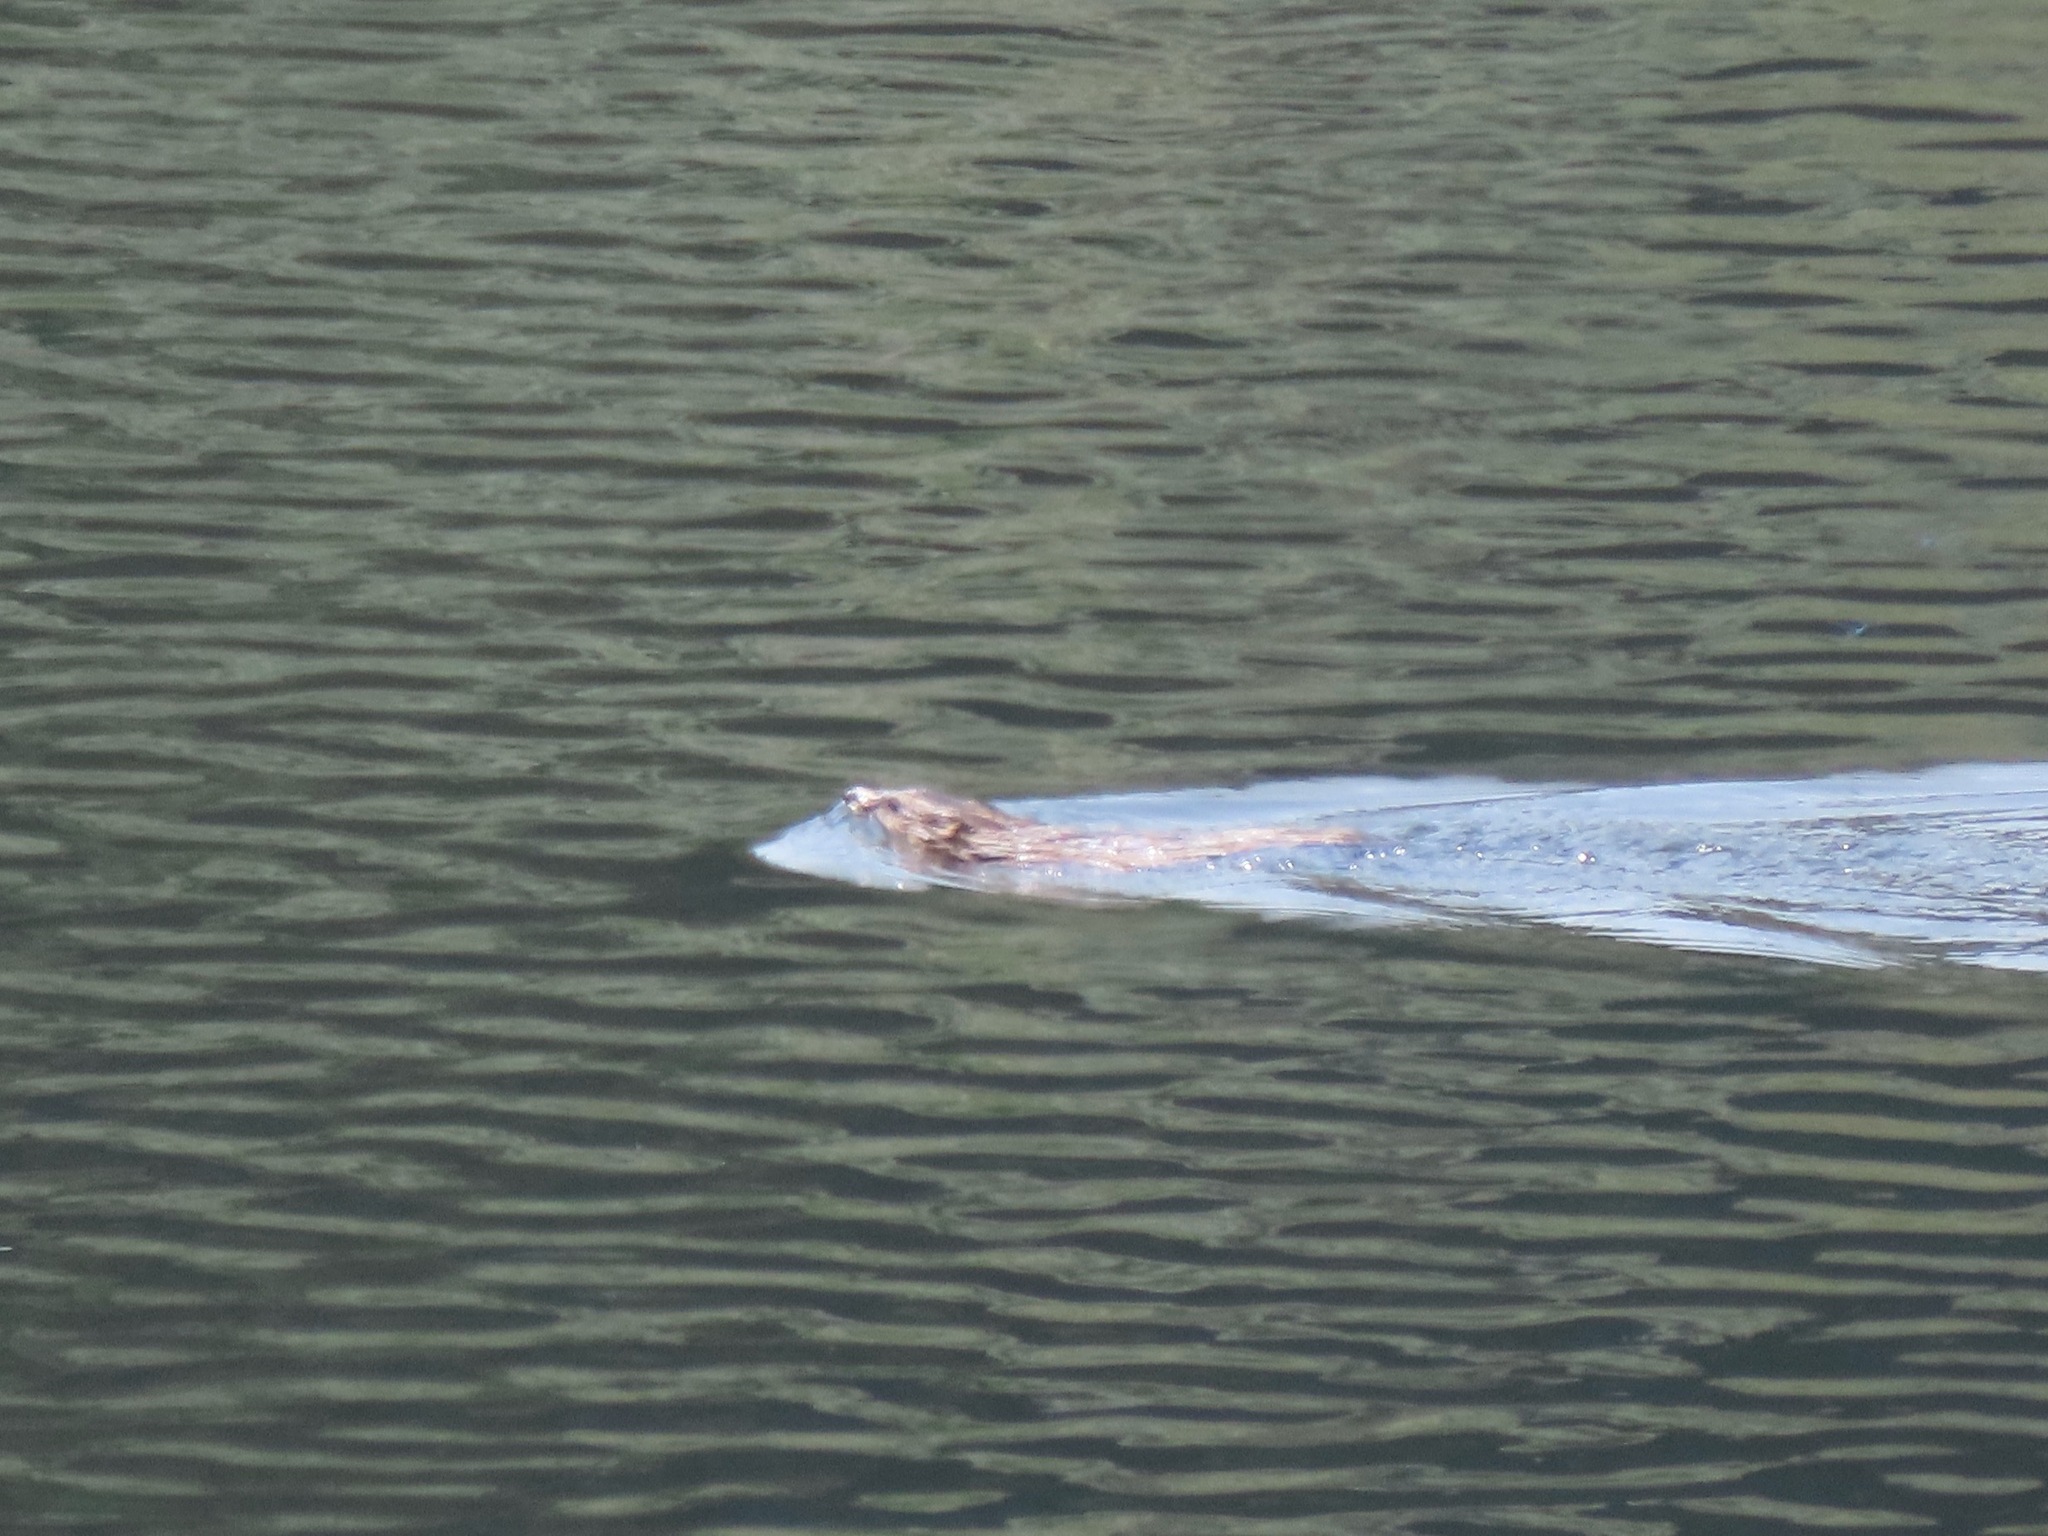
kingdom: Animalia
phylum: Chordata
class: Mammalia
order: Rodentia
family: Cricetidae
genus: Ondatra
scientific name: Ondatra zibethicus
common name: Muskrat
